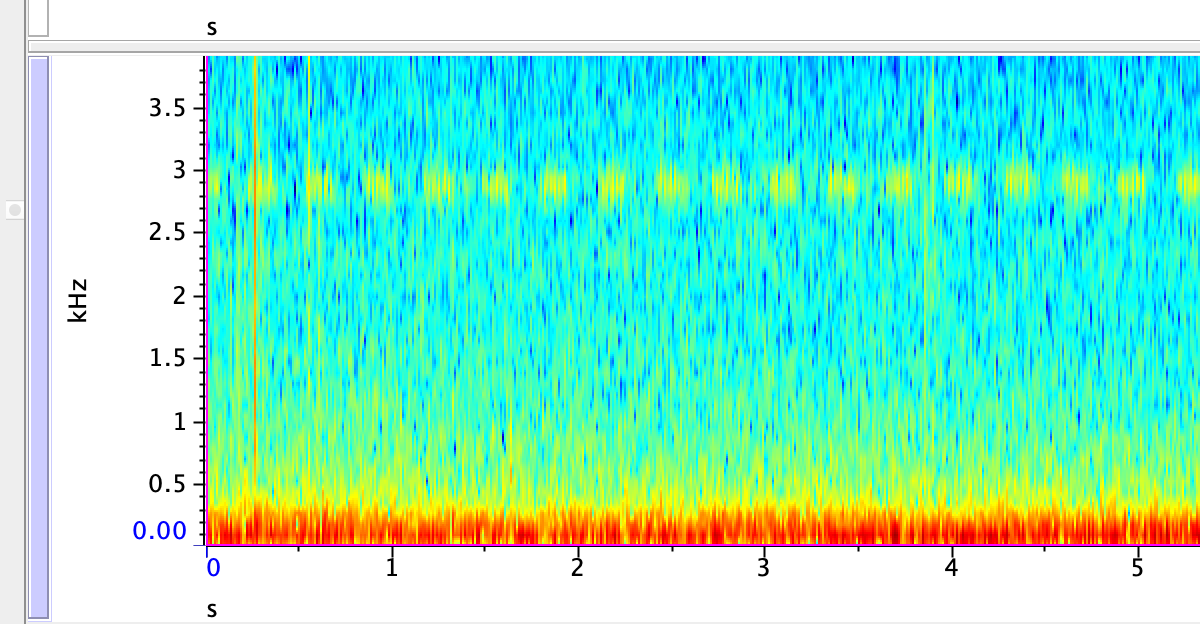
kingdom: Animalia
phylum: Arthropoda
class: Insecta
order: Orthoptera
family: Gryllidae
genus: Oecanthus
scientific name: Oecanthus fultoni
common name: Snowy tree cricket
